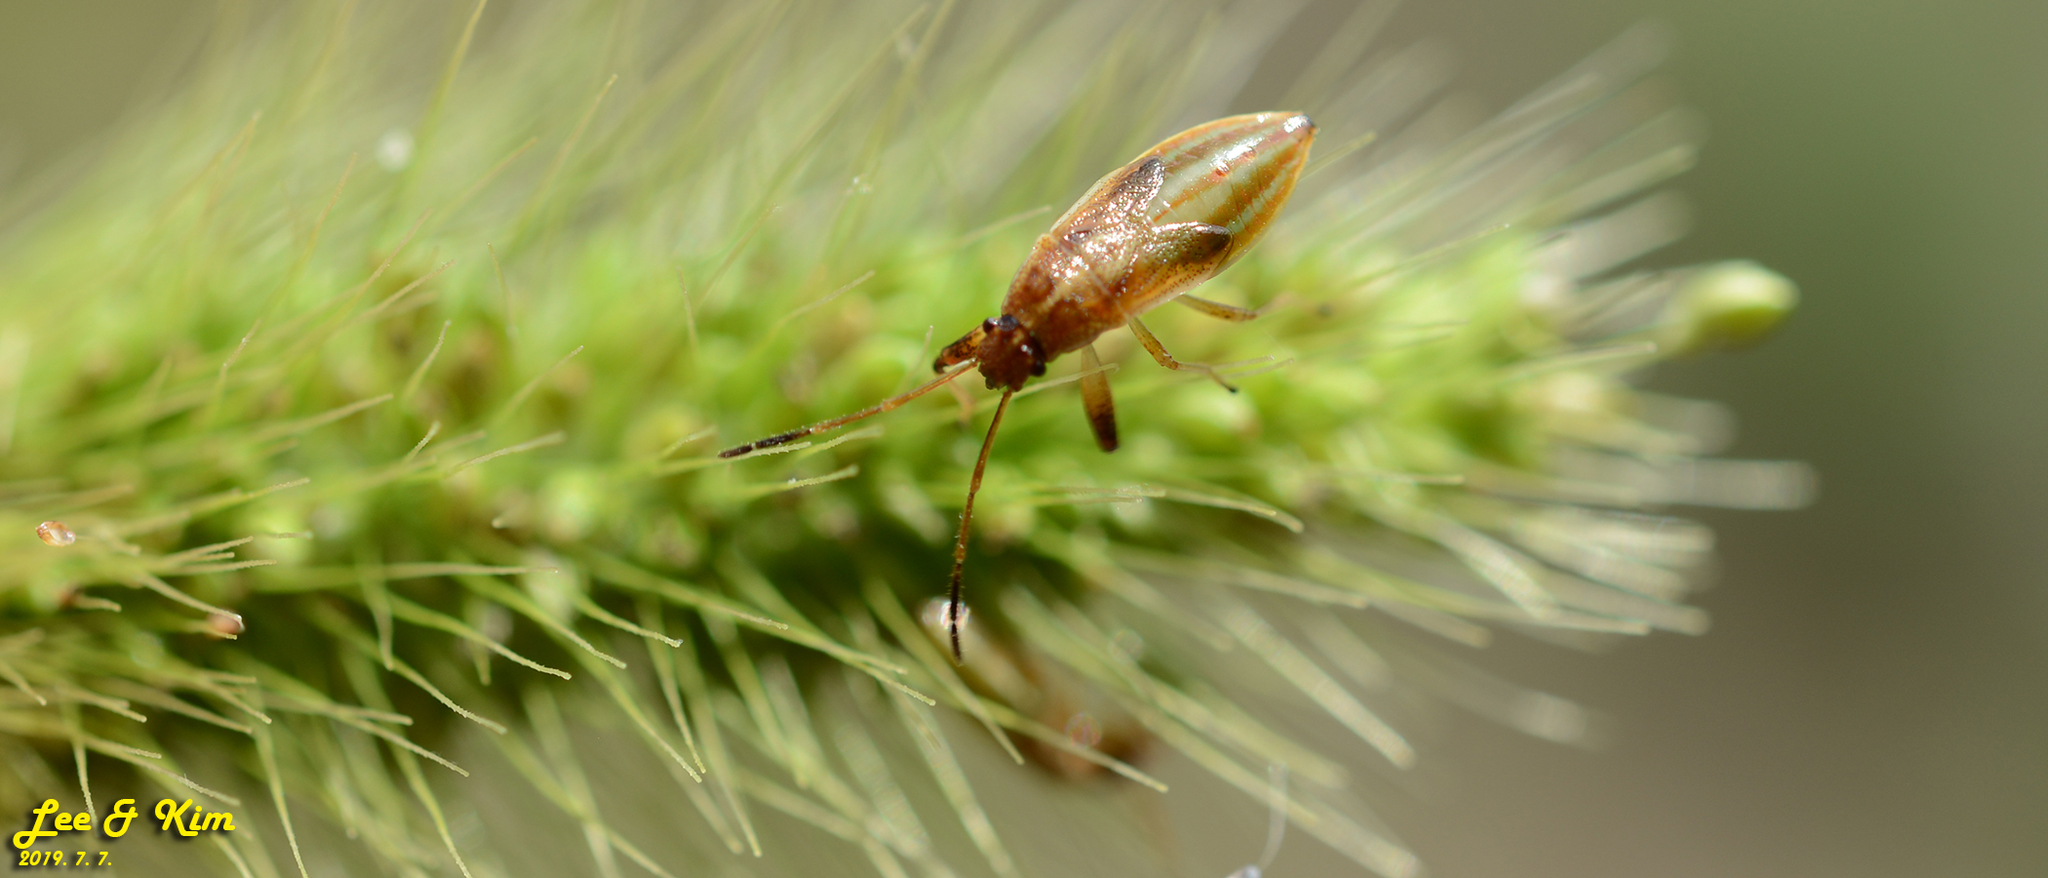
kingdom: Animalia
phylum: Arthropoda
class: Insecta
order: Hemiptera
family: Pachygronthidae
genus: Pachygrontha
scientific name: Pachygrontha antennata
